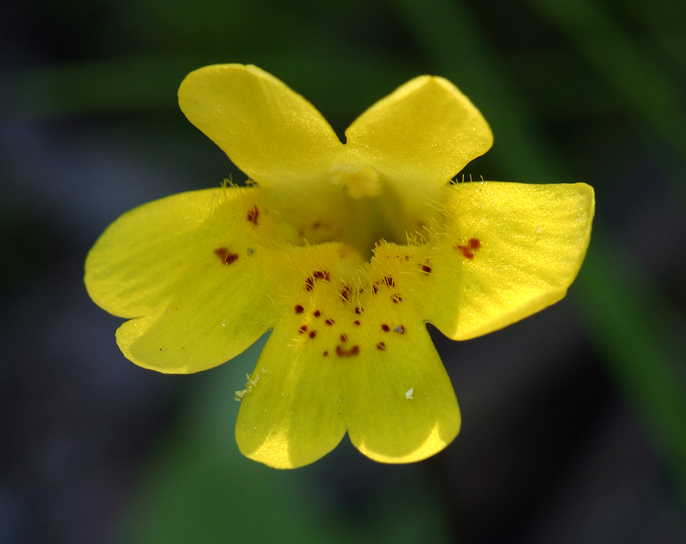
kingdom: Plantae
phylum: Tracheophyta
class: Magnoliopsida
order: Lamiales
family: Phrymaceae
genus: Erythranthe
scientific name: Erythranthe primuloides
